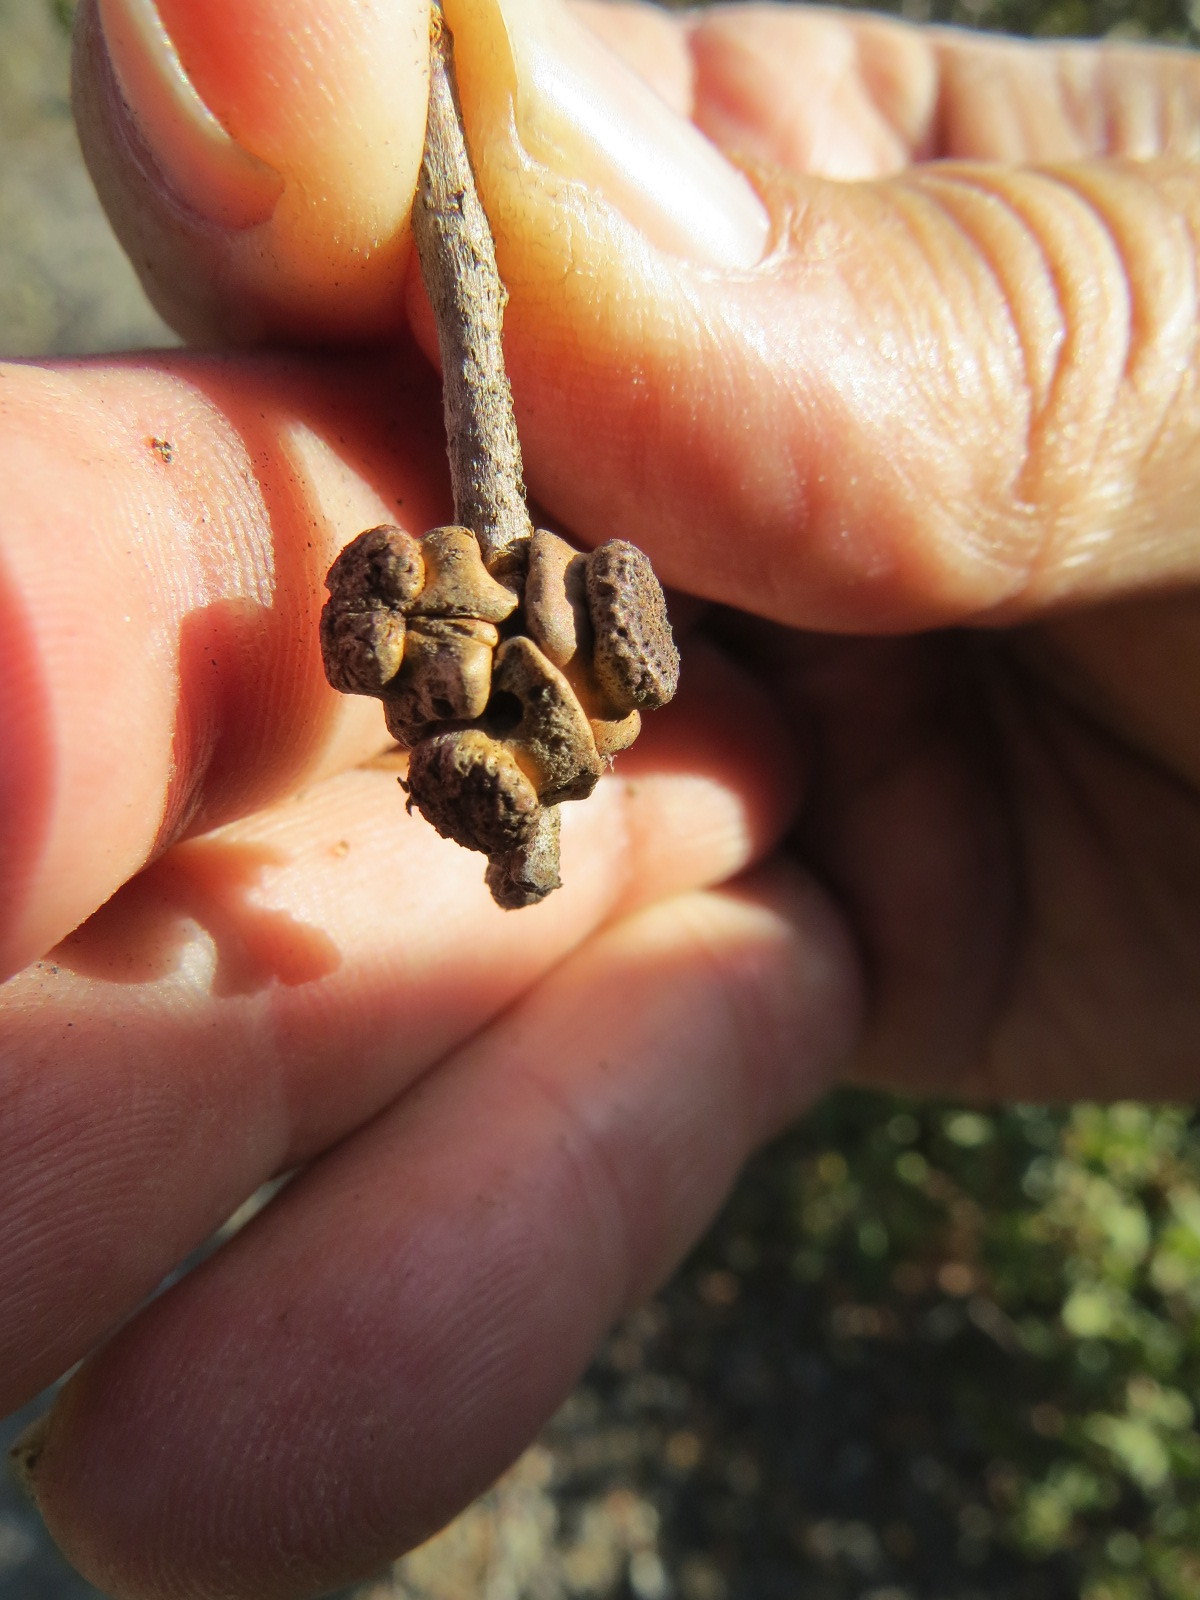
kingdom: Animalia
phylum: Arthropoda
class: Insecta
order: Hymenoptera
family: Cynipidae
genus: Disholcaspis
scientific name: Disholcaspis prehensa
